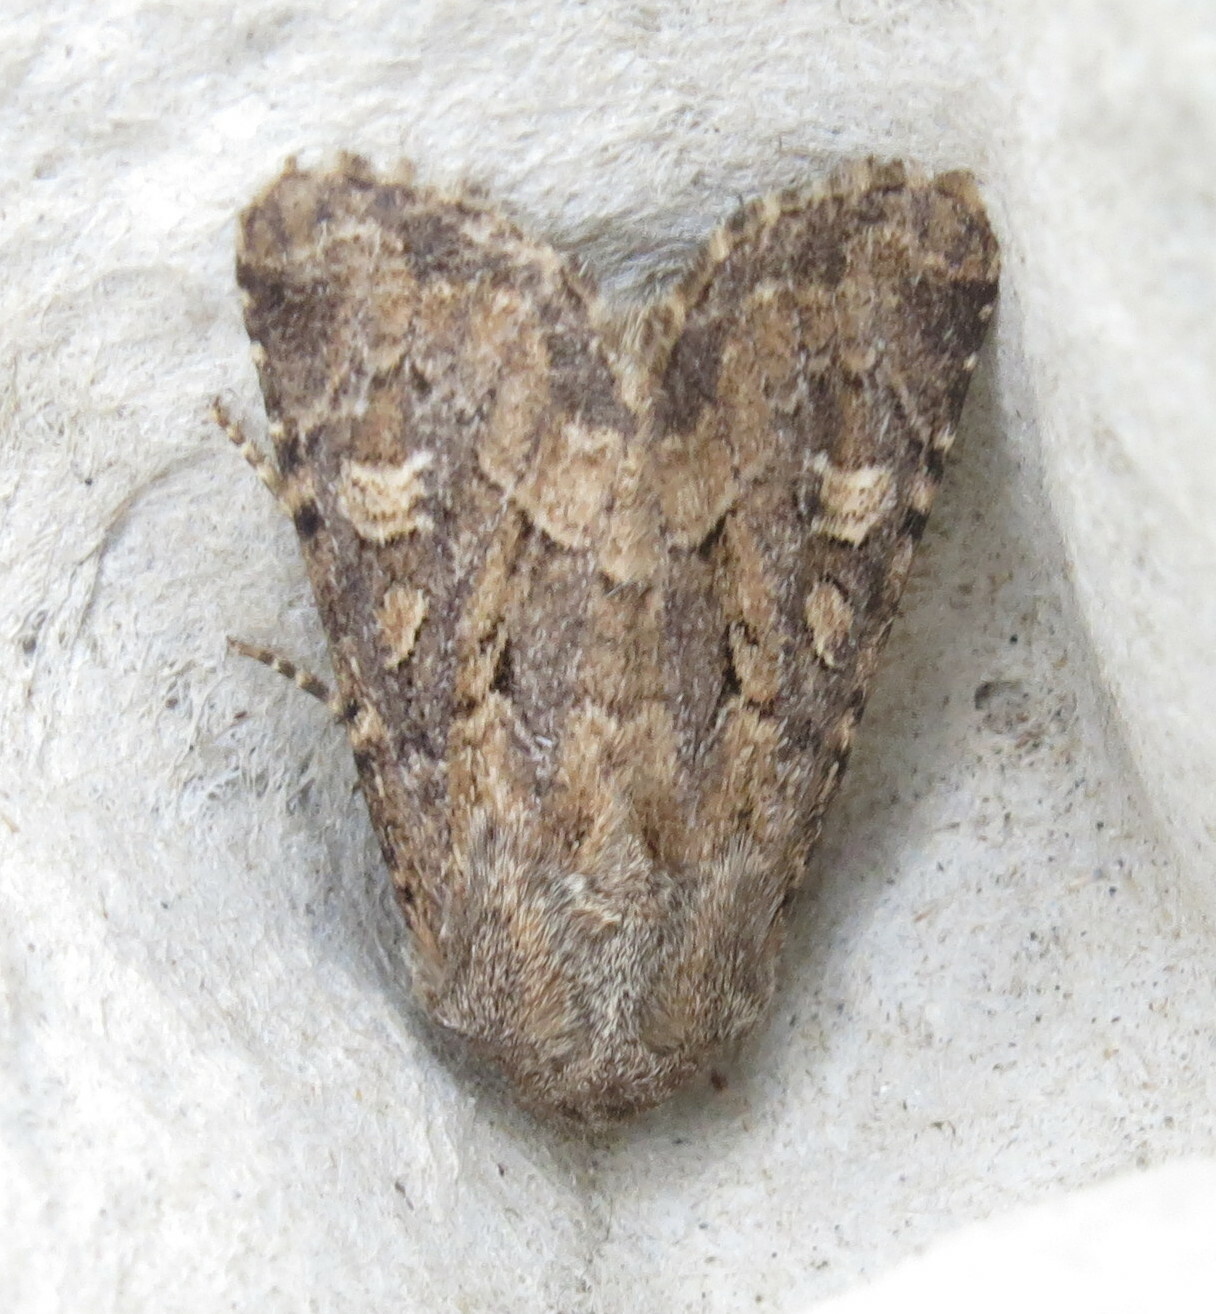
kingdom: Animalia
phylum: Arthropoda
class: Insecta
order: Lepidoptera
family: Noctuidae
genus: Luperina
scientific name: Luperina testacea
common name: Flounced rustic
